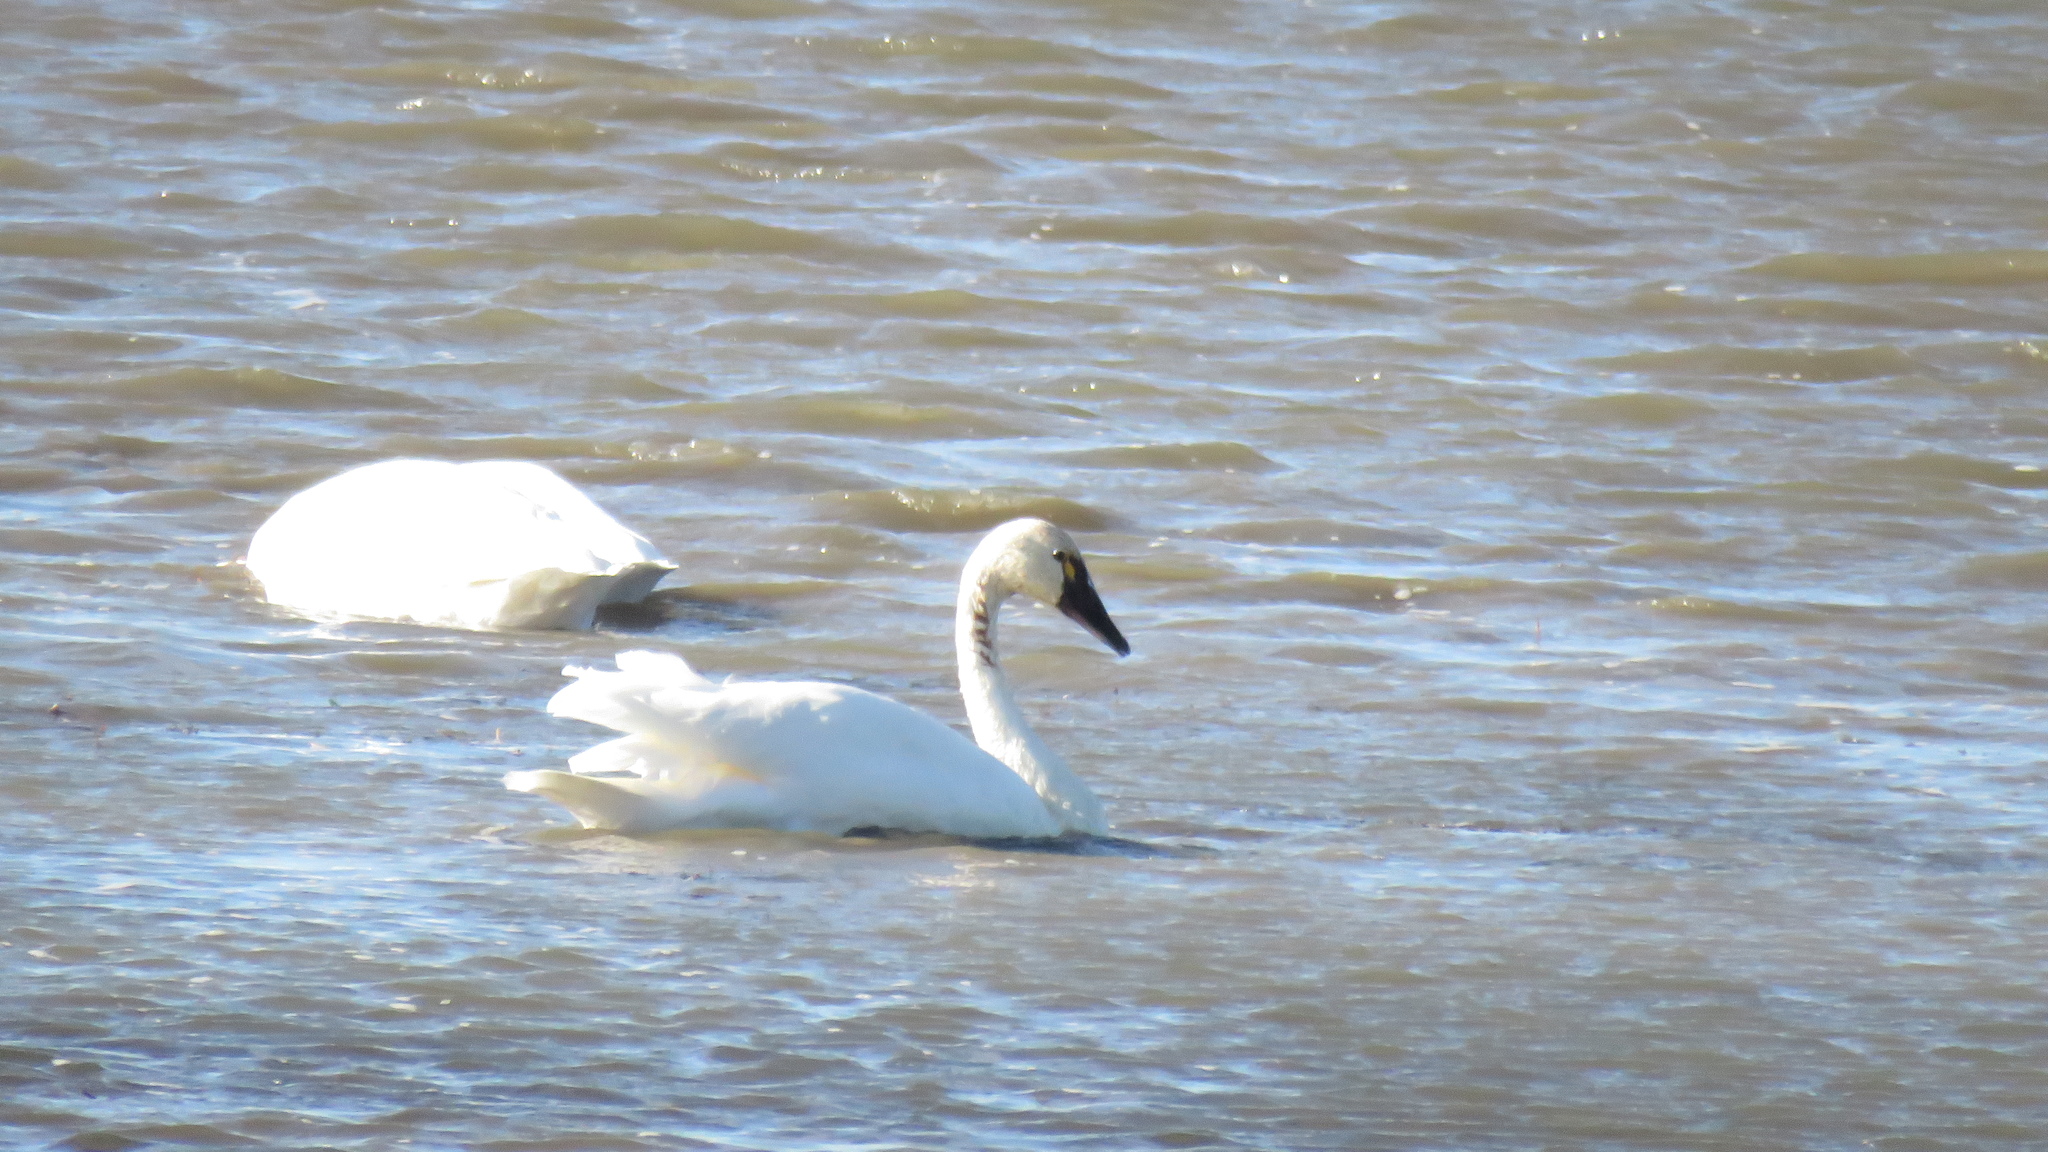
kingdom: Animalia
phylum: Chordata
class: Aves
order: Anseriformes
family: Anatidae
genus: Cygnus
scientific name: Cygnus columbianus
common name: Tundra swan
